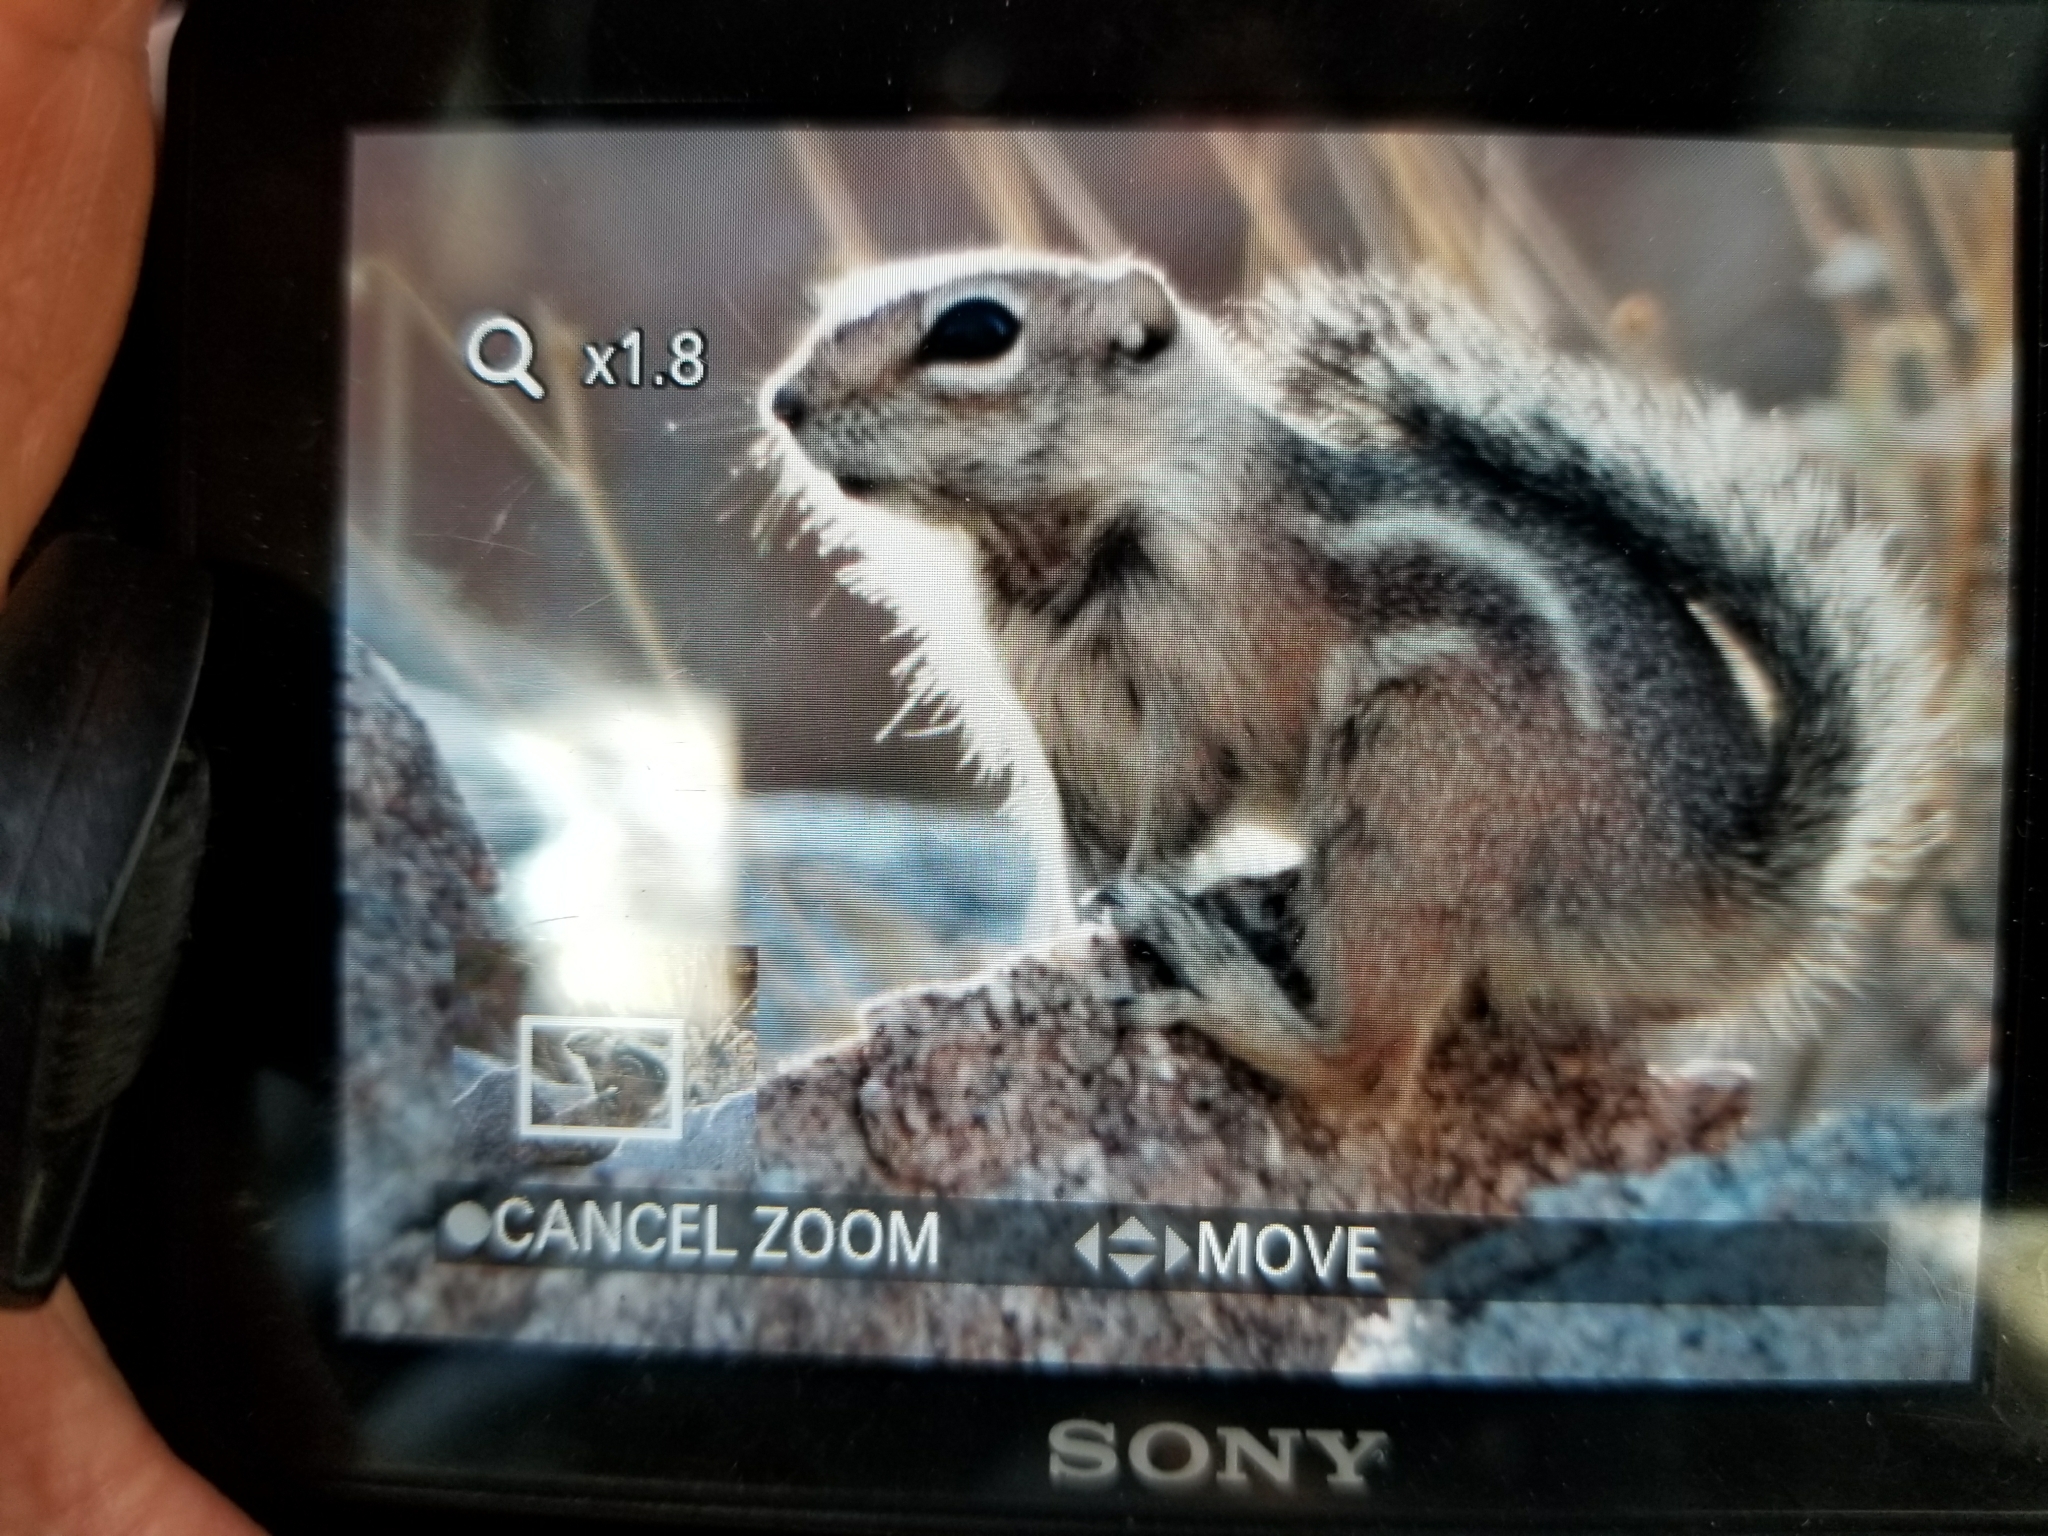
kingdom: Animalia
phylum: Chordata
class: Mammalia
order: Rodentia
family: Sciuridae
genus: Ammospermophilus
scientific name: Ammospermophilus harrisii
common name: Harris's antelope squirrel
